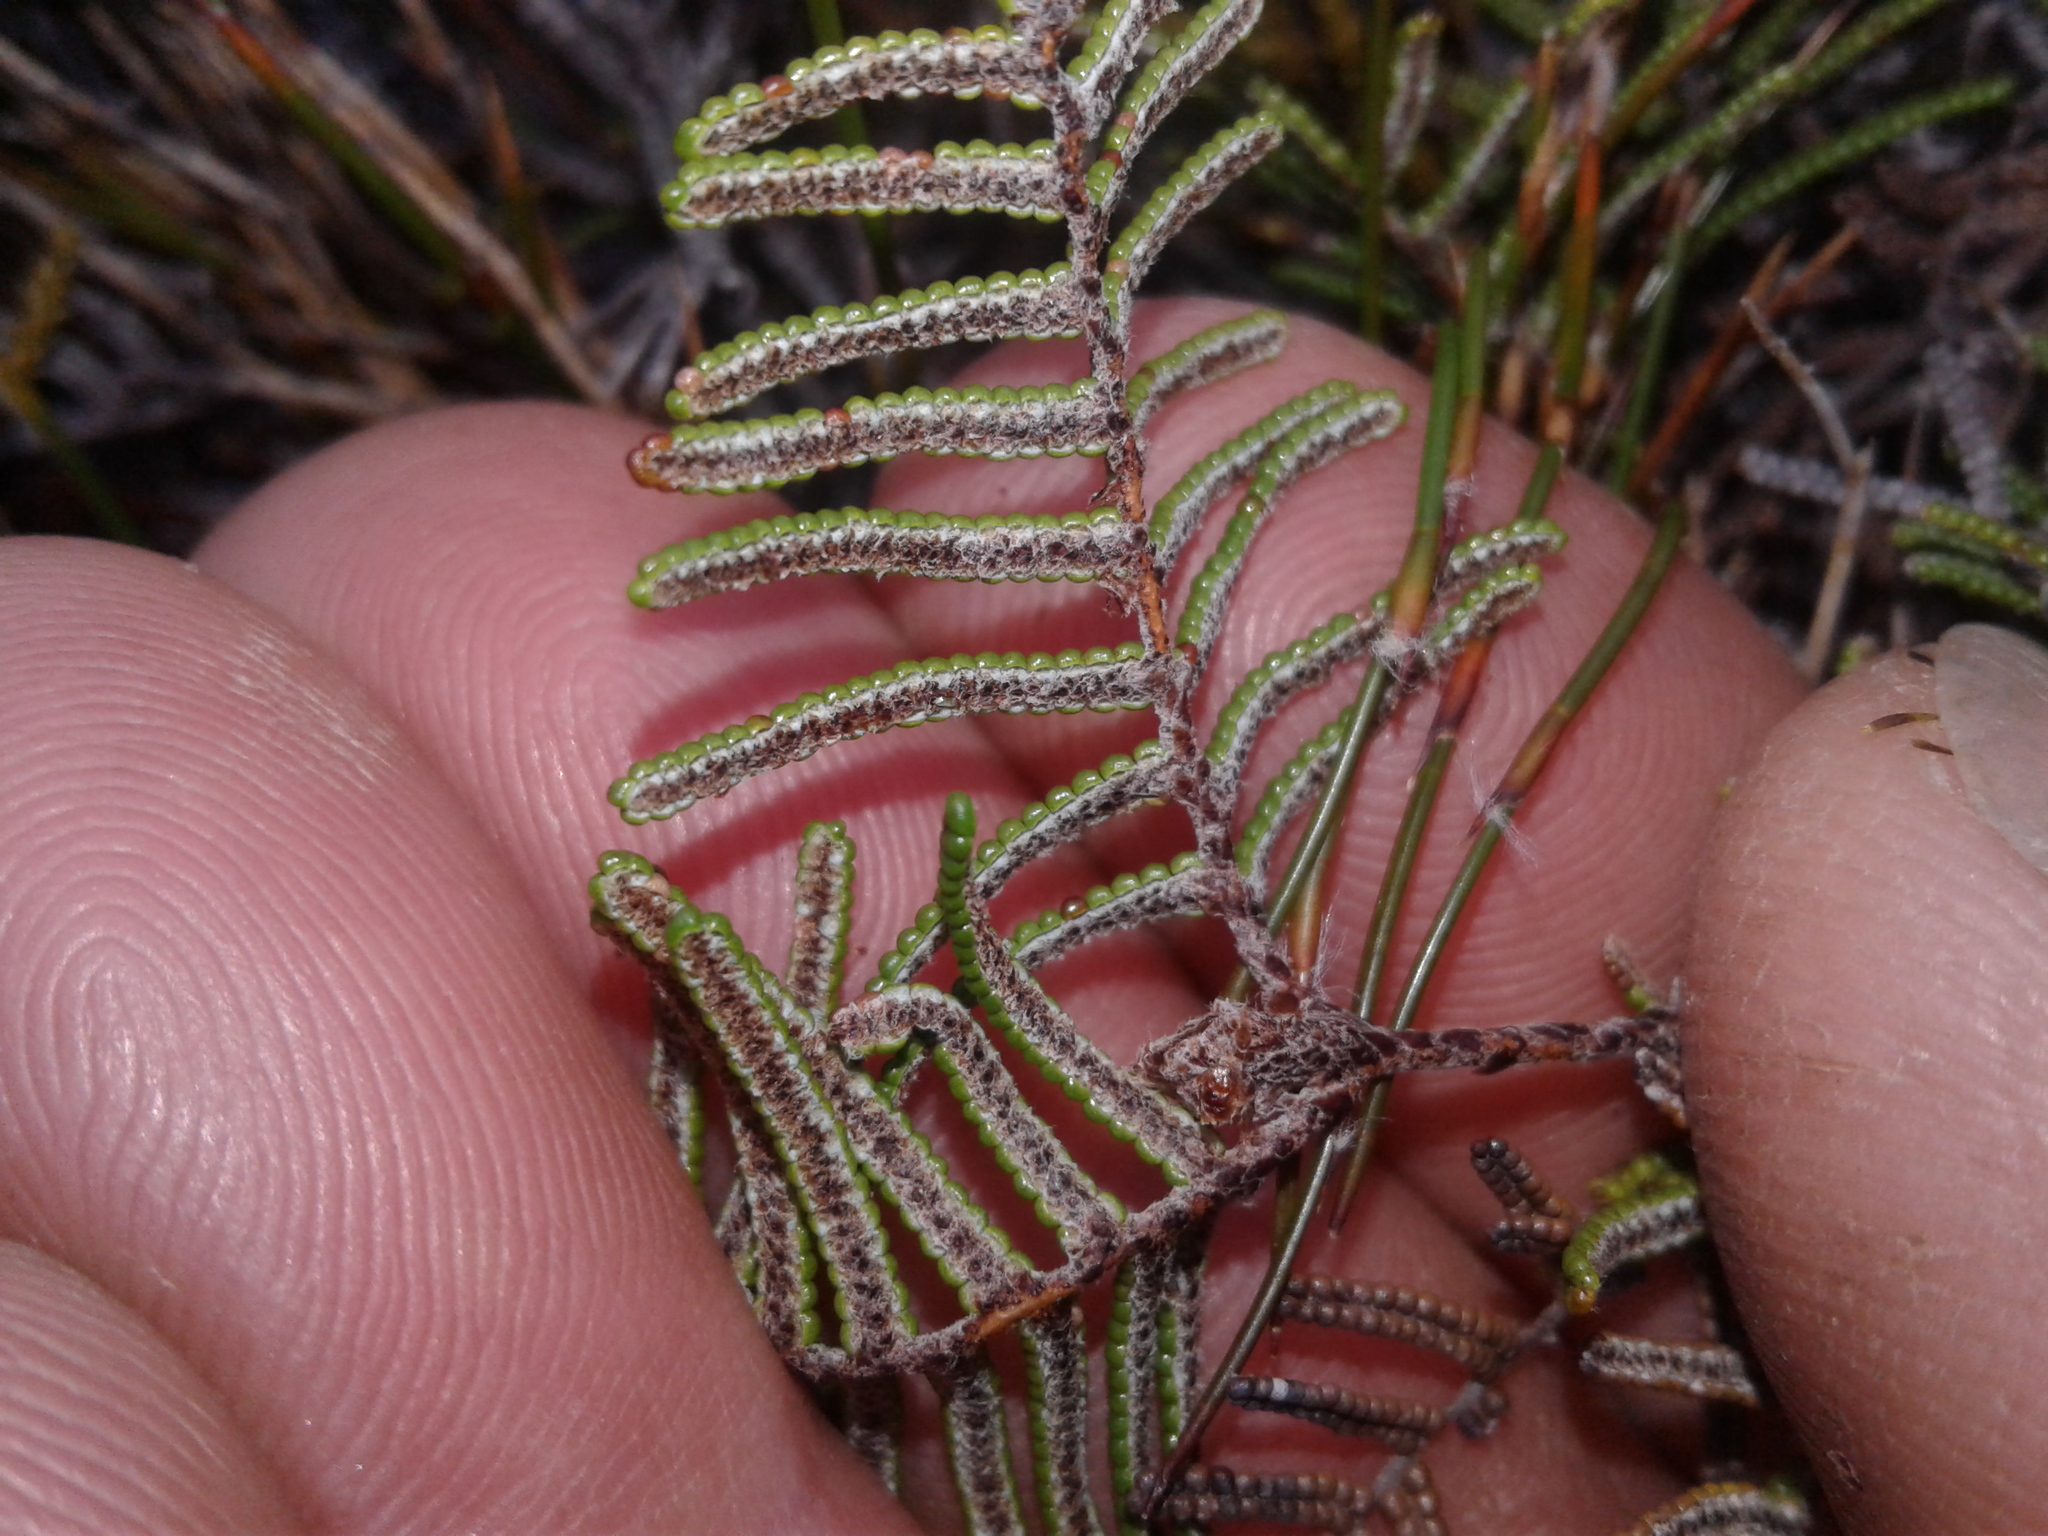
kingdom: Plantae
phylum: Tracheophyta
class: Polypodiopsida
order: Gleicheniales
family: Gleicheniaceae
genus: Gleichenia
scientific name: Gleichenia dicarpa
